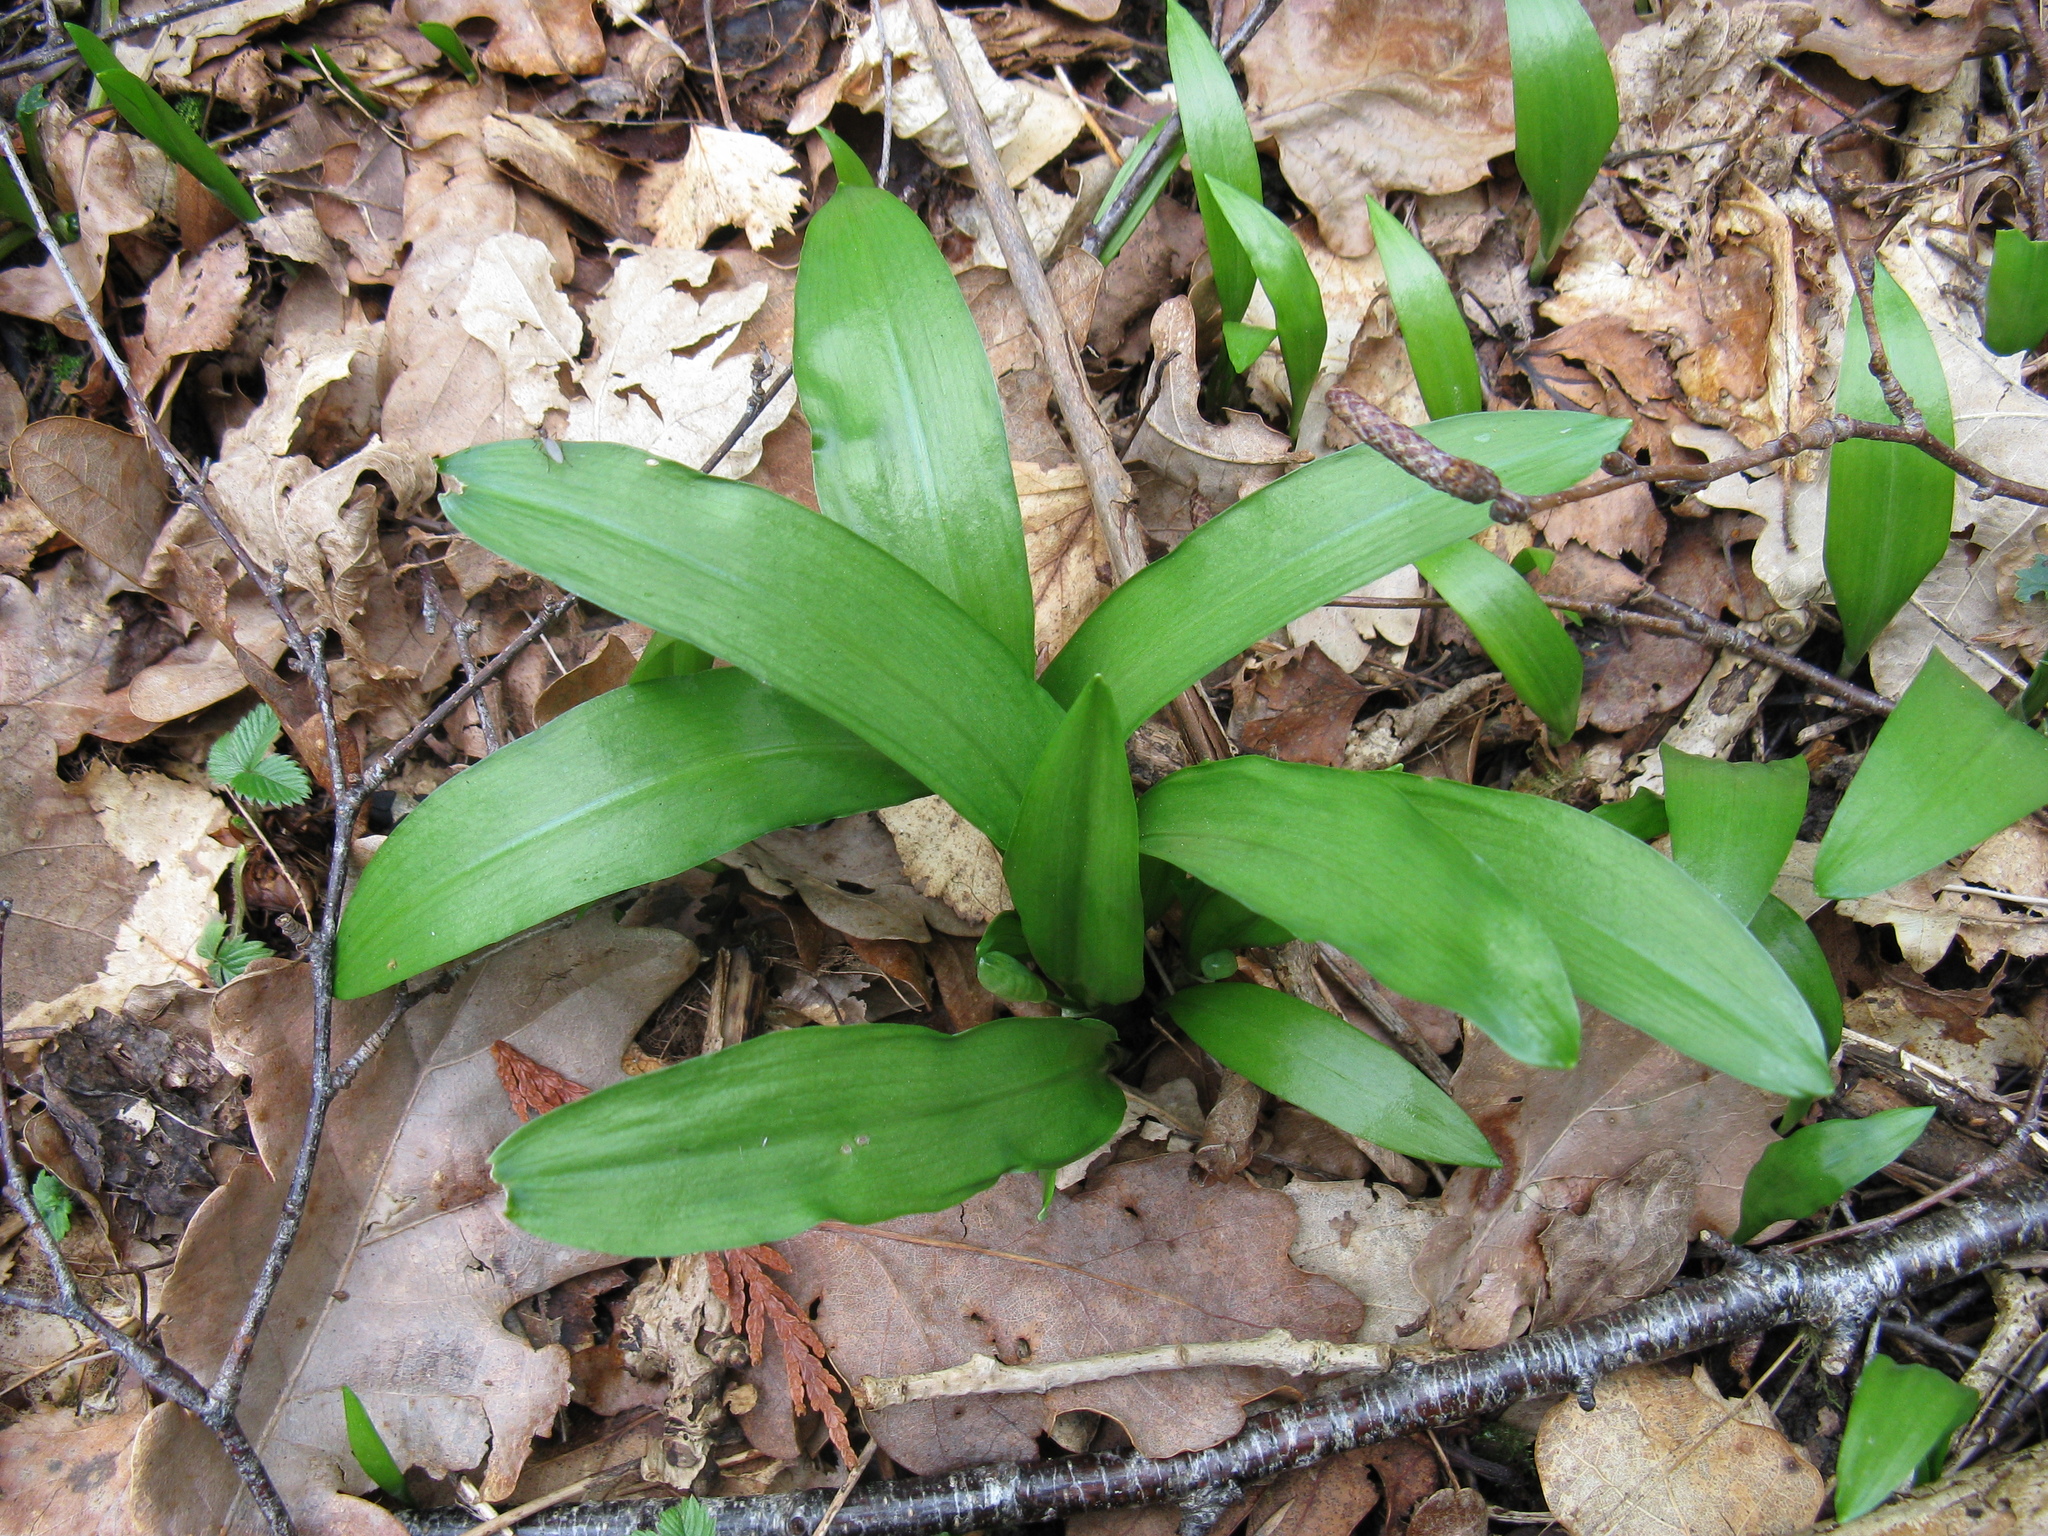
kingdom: Plantae
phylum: Tracheophyta
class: Liliopsida
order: Asparagales
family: Amaryllidaceae
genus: Allium
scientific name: Allium ursinum
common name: Ramsons
